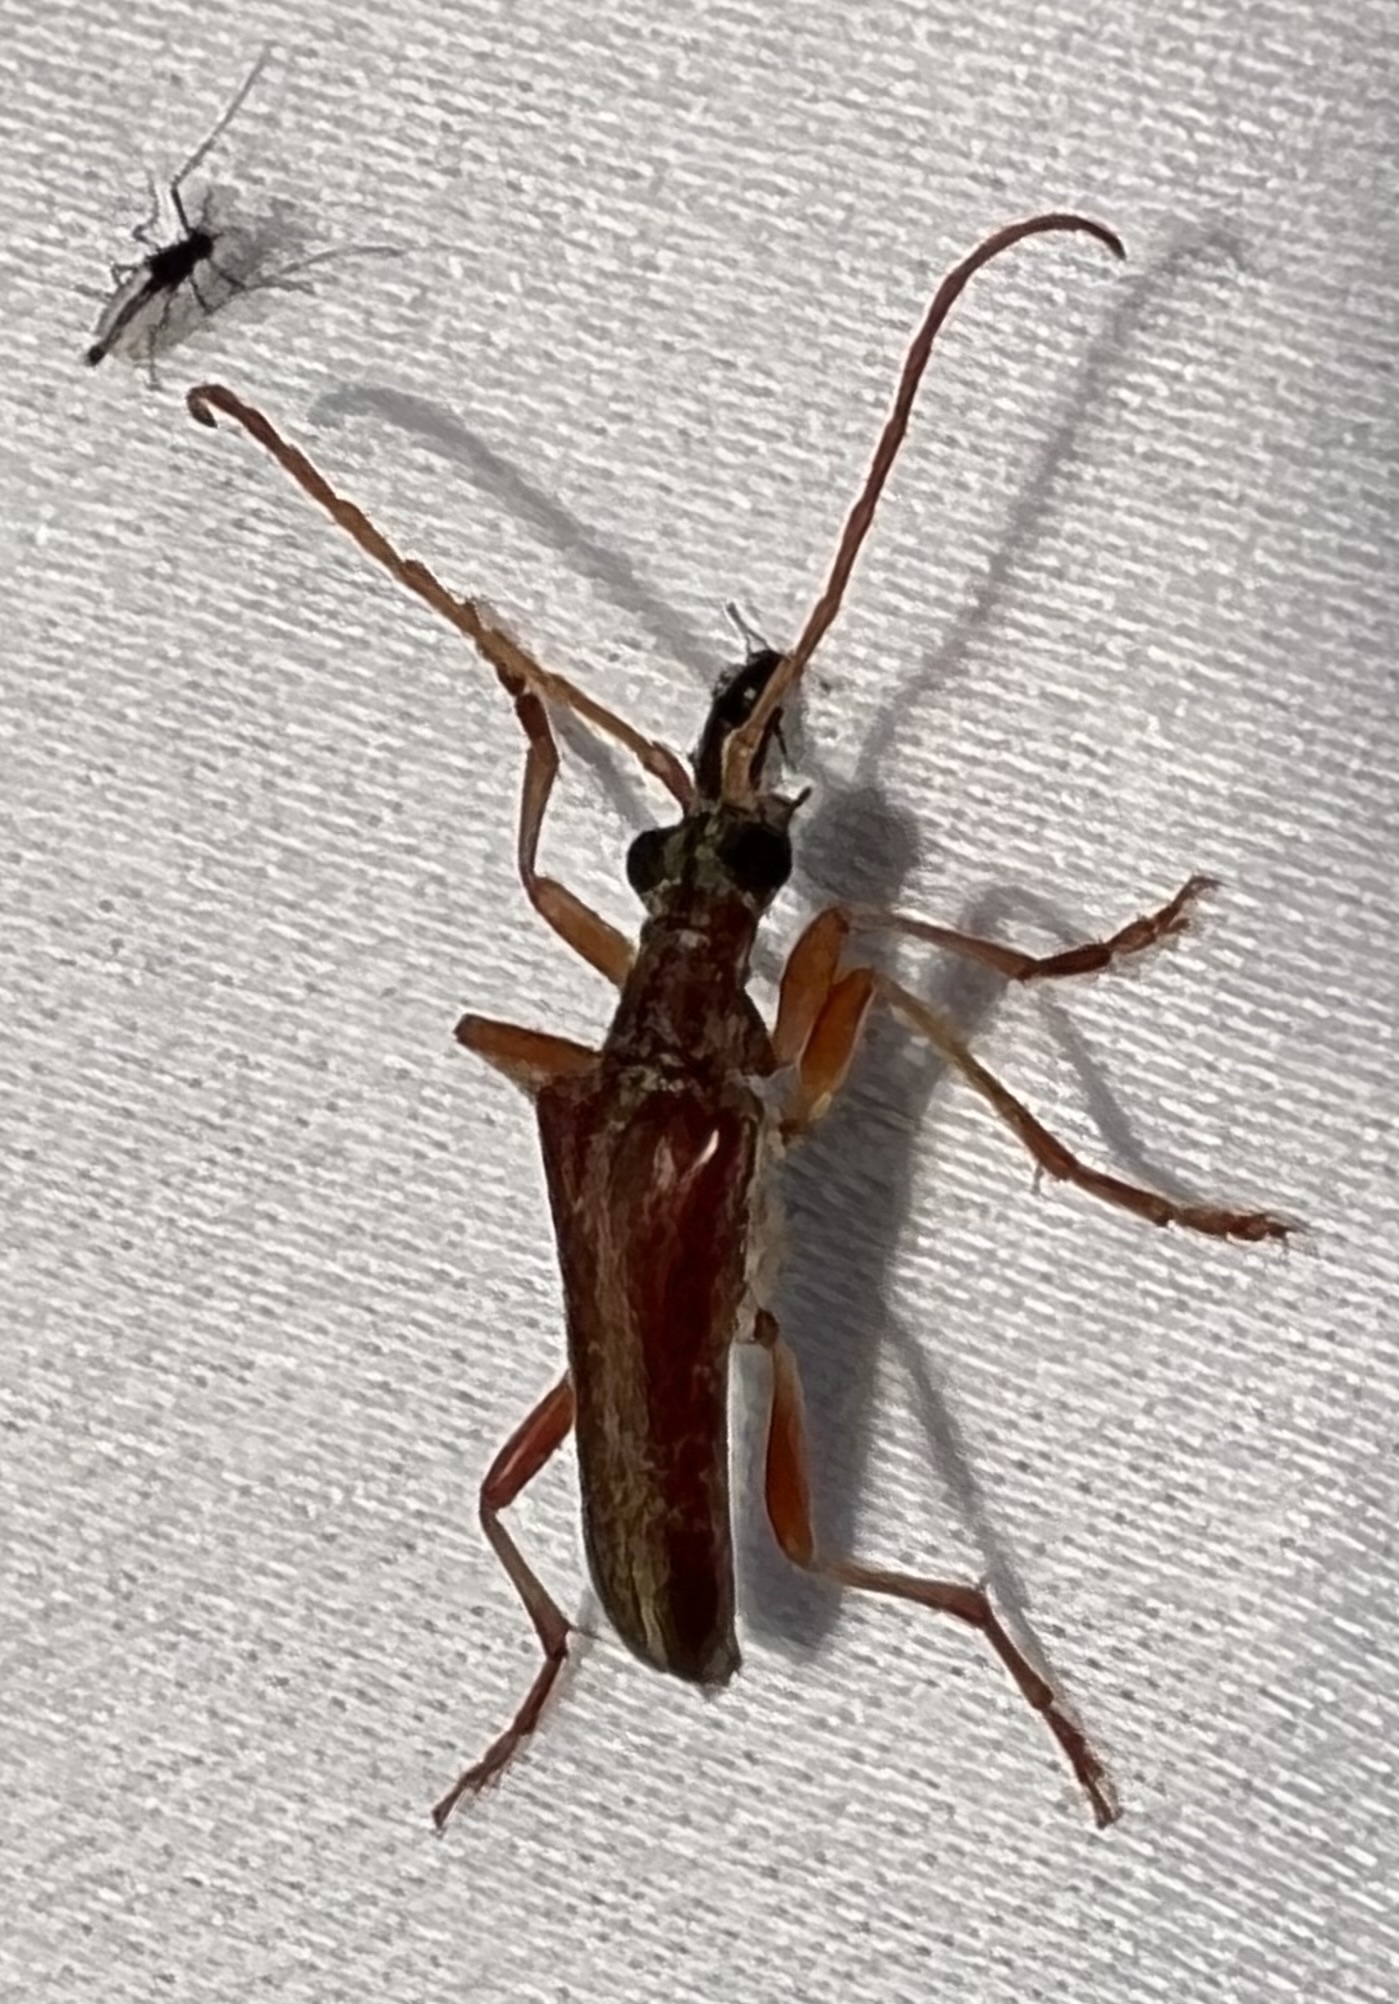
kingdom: Animalia
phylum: Arthropoda
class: Insecta
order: Coleoptera
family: Cerambycidae
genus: Stenocorus
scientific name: Stenocorus cinnamopterus
